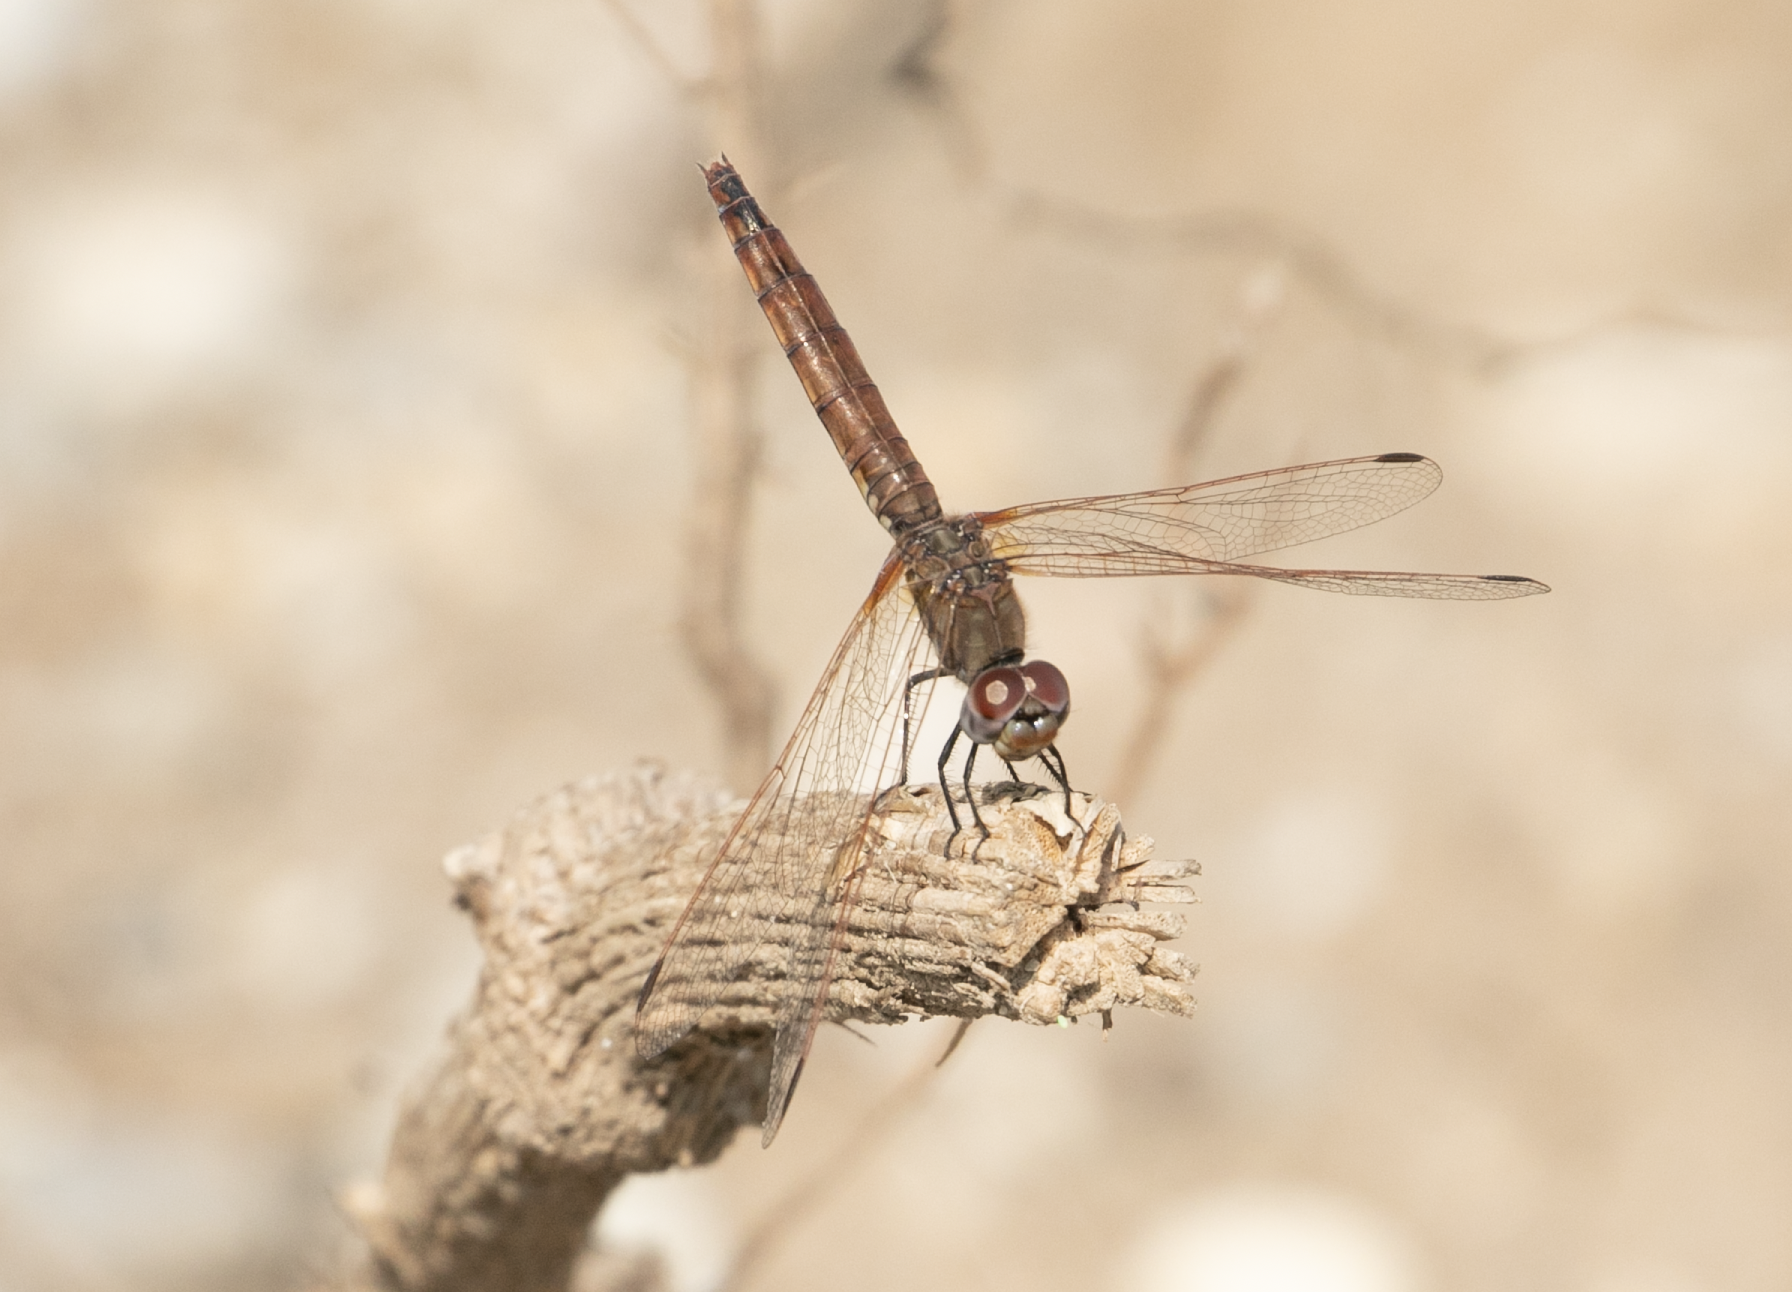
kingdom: Animalia
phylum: Arthropoda
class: Insecta
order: Odonata
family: Libellulidae
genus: Trithemis
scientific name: Trithemis annulata
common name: Violet dropwing
